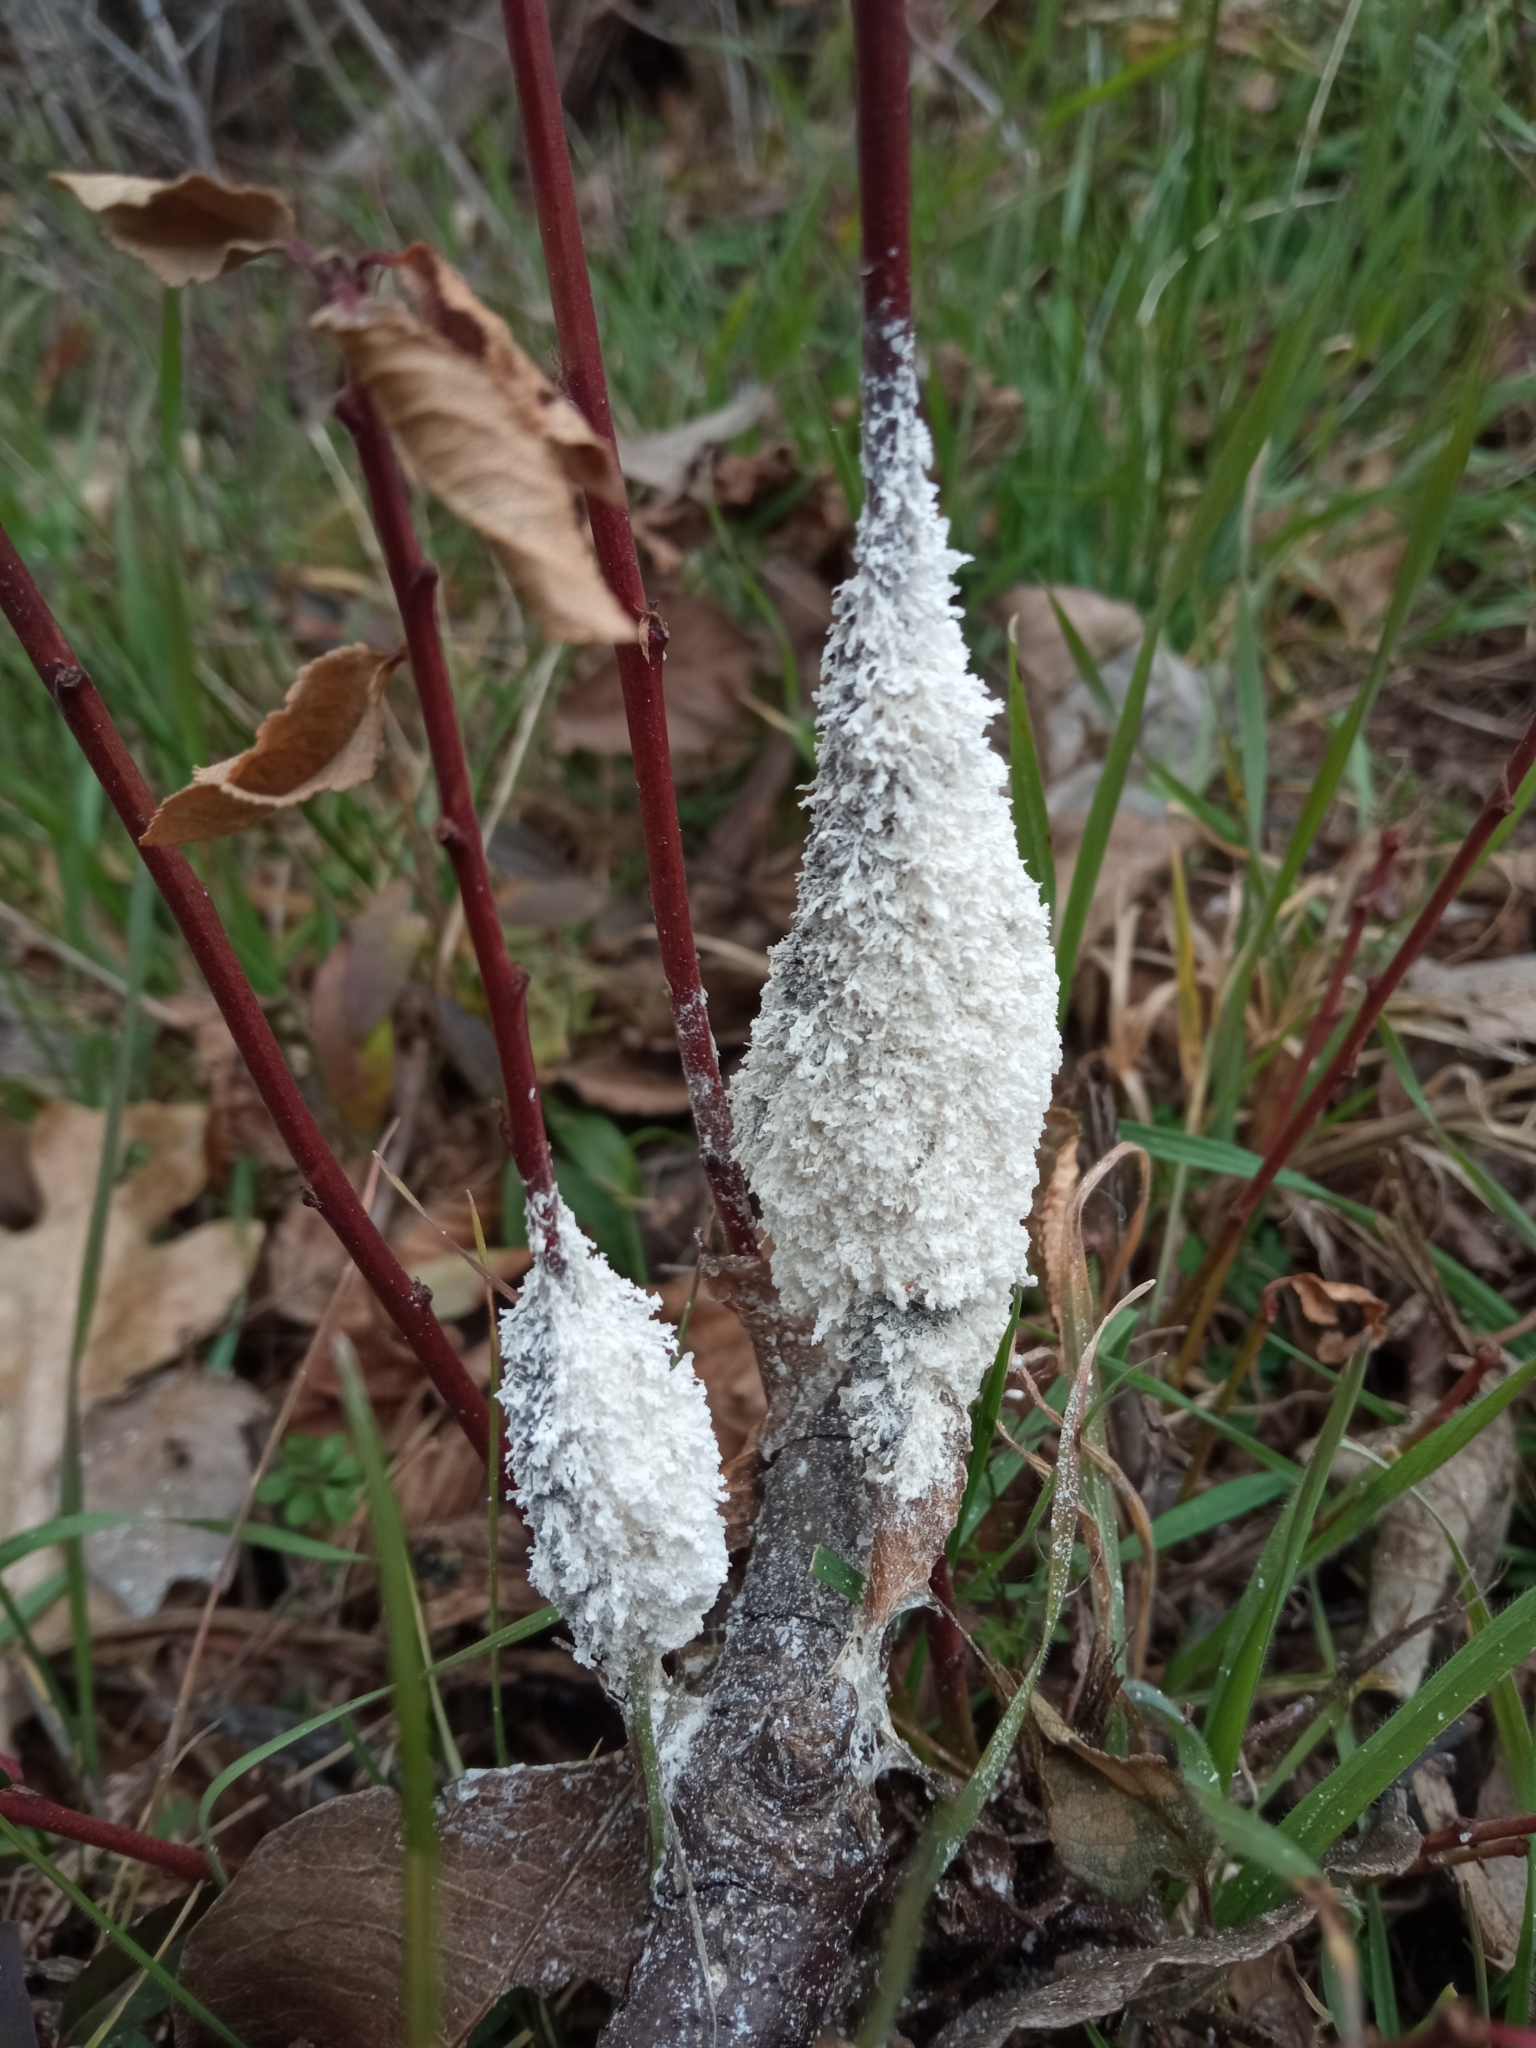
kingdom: Protozoa
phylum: Mycetozoa
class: Myxomycetes
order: Physarales
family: Physaraceae
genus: Didymium
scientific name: Didymium
